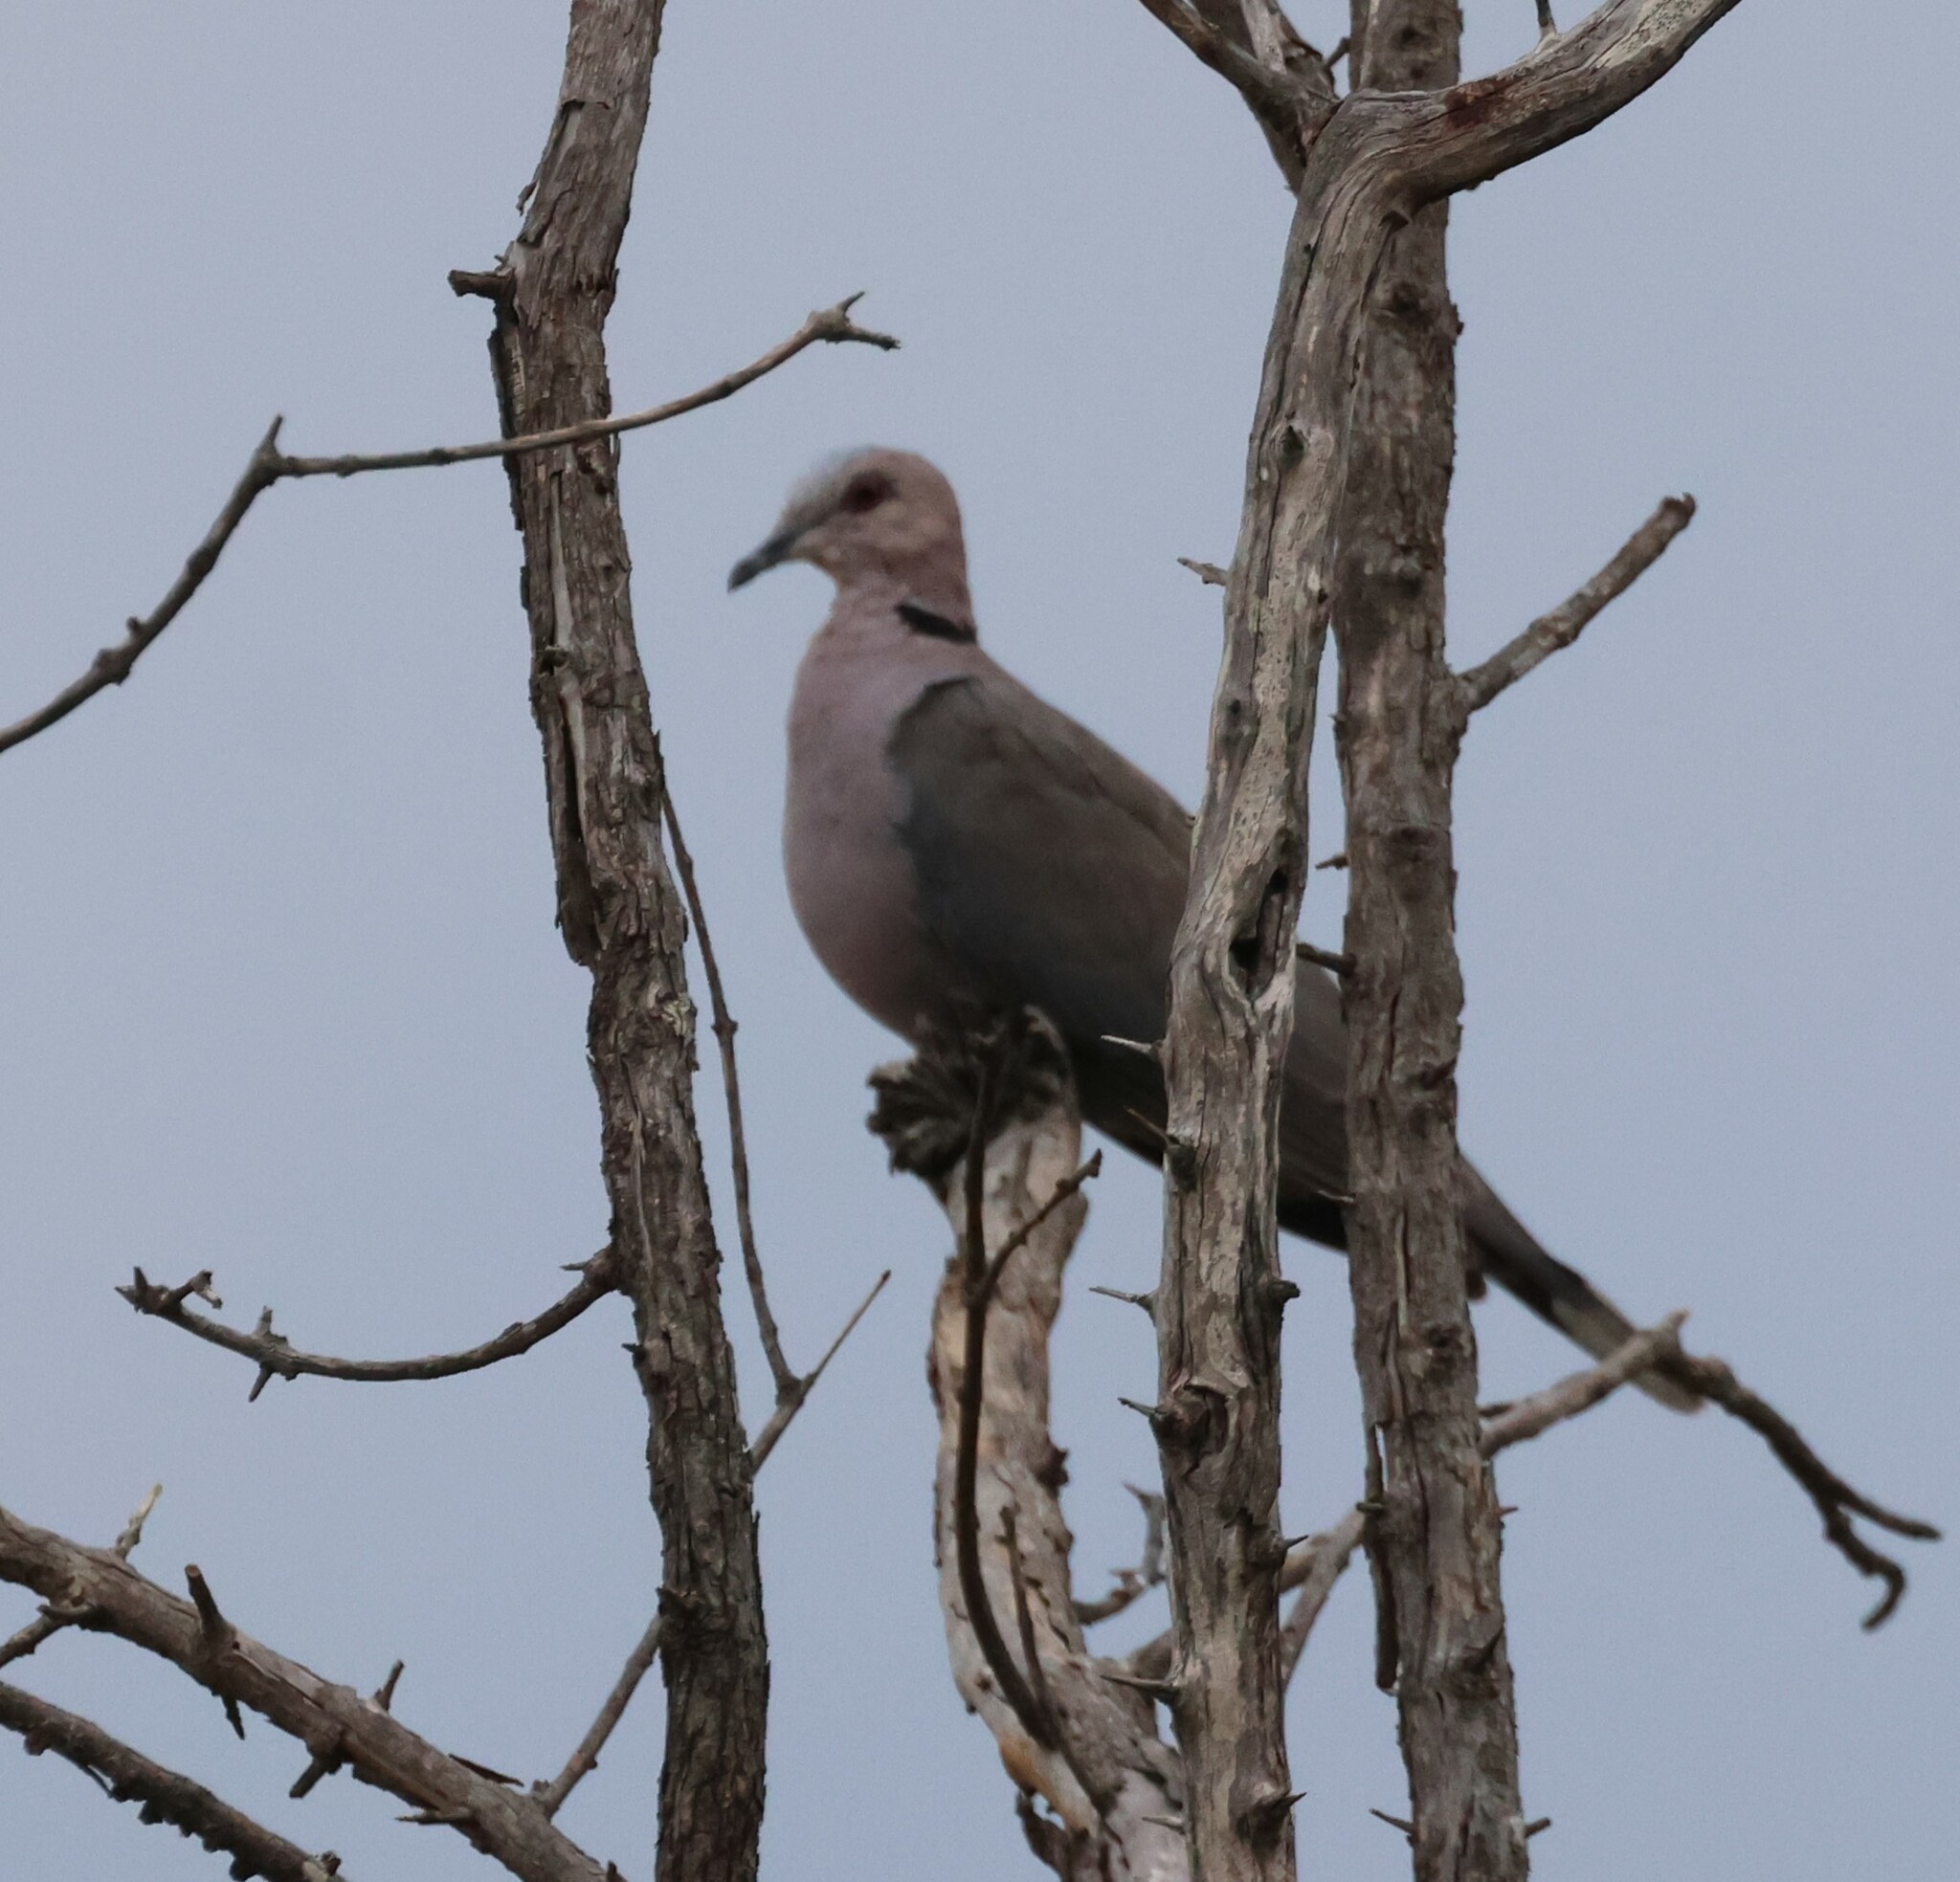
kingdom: Animalia
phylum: Chordata
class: Aves
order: Columbiformes
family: Columbidae
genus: Streptopelia
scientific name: Streptopelia semitorquata
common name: Red-eyed dove
